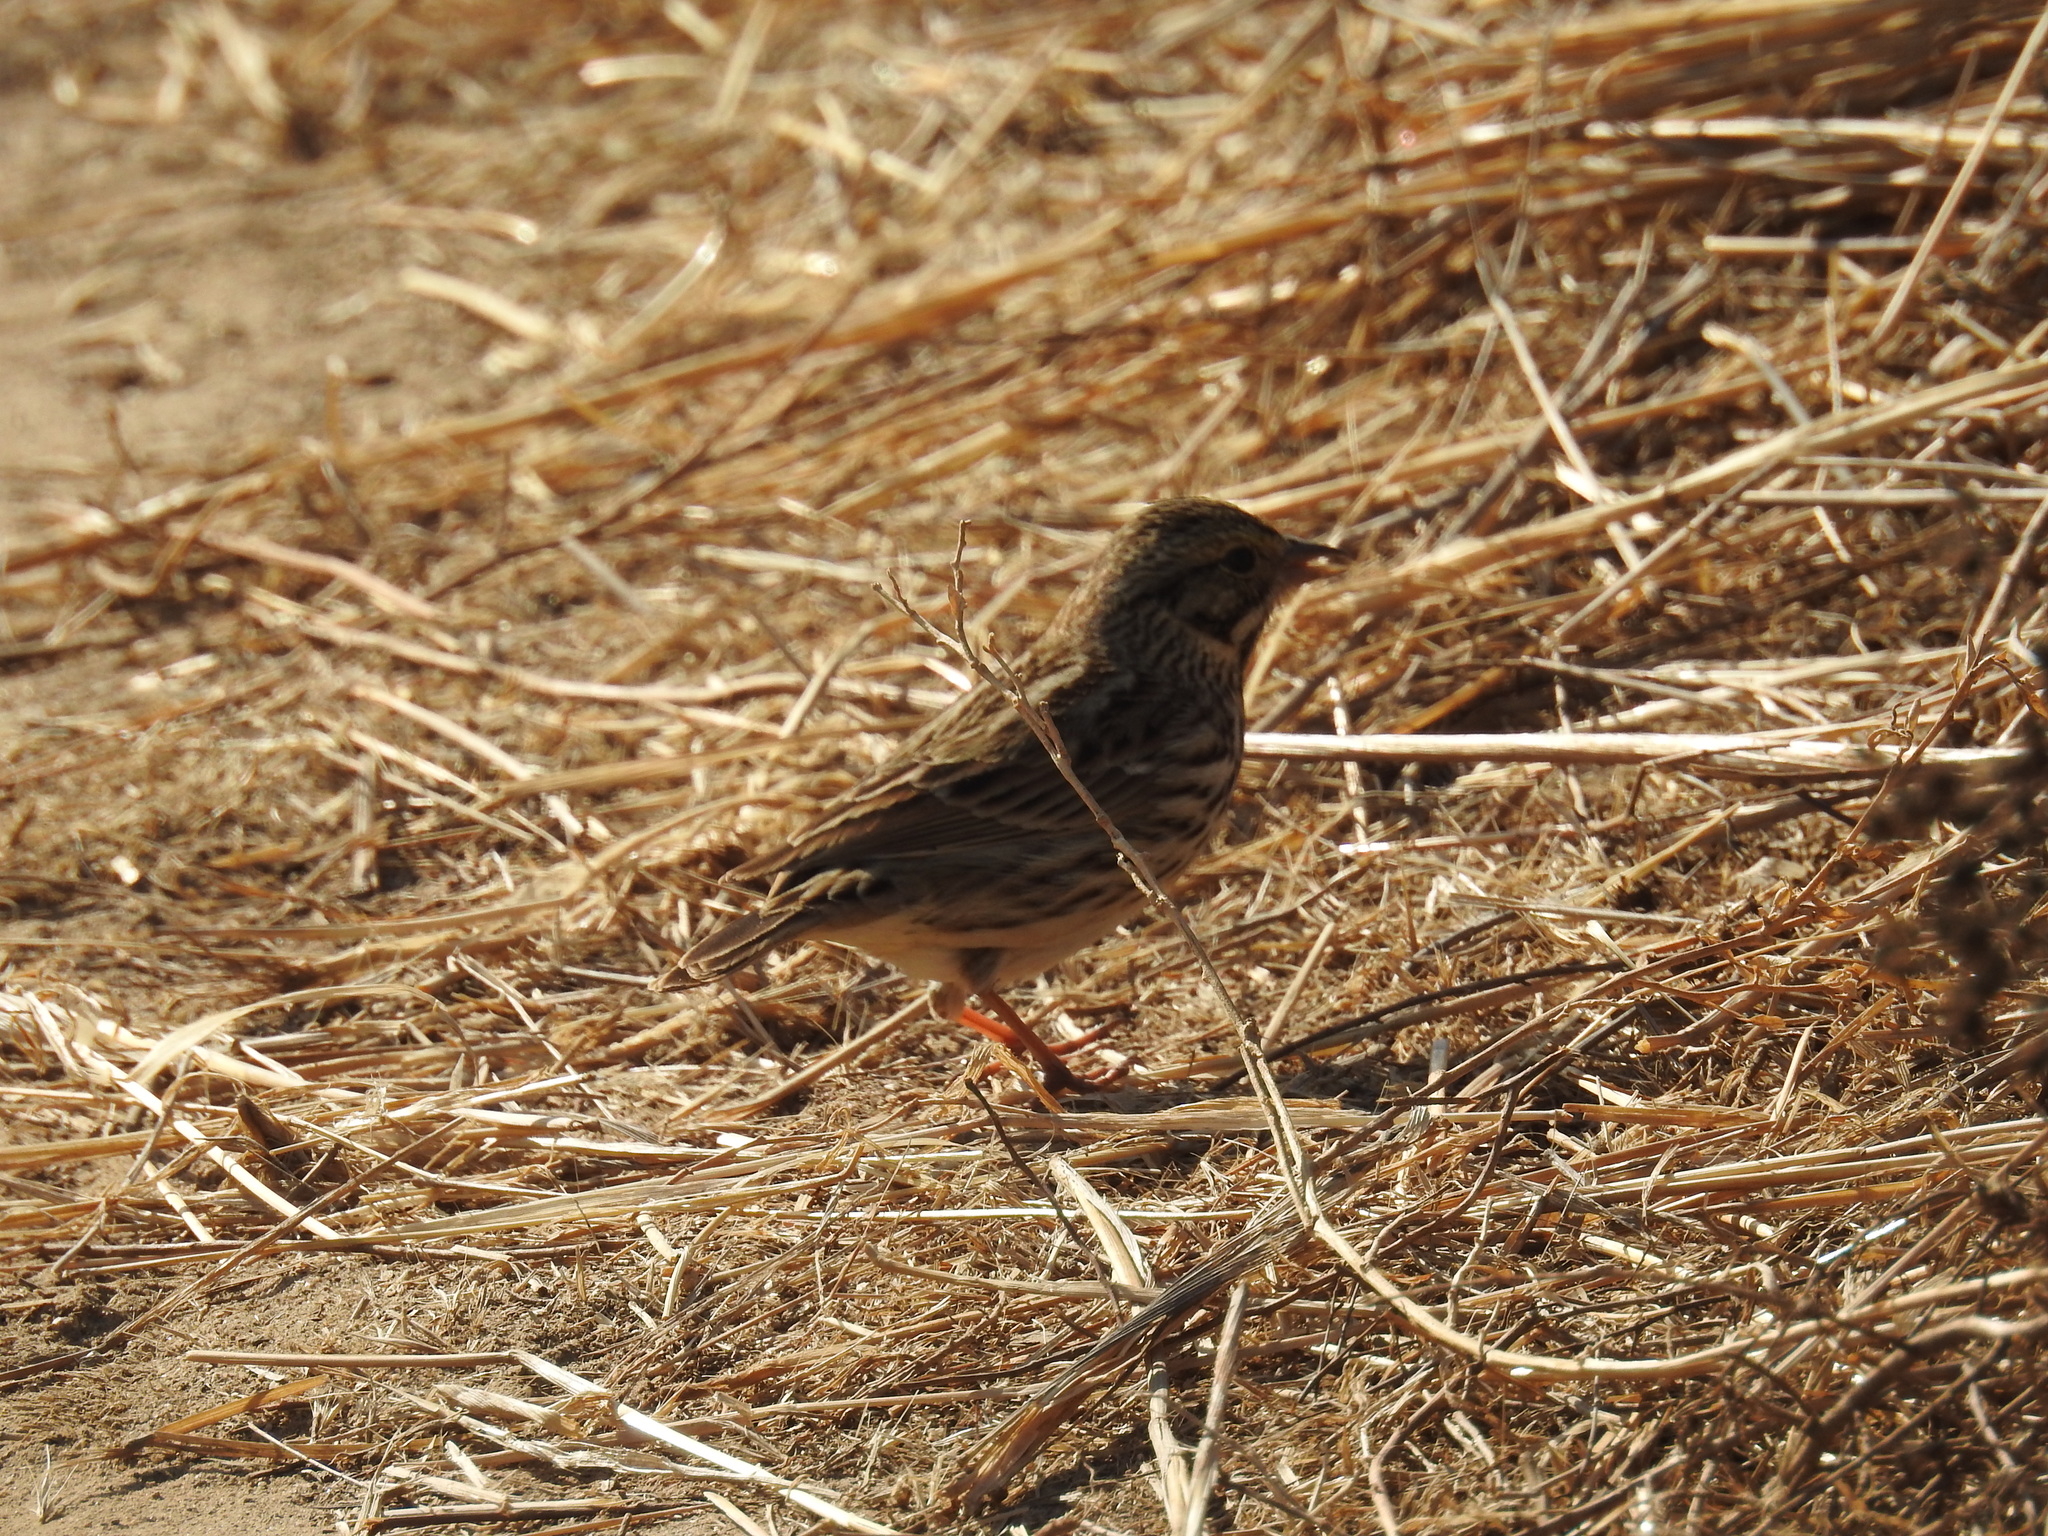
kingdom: Animalia
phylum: Chordata
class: Aves
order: Passeriformes
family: Passerellidae
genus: Passerculus
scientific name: Passerculus sandwichensis
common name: Savannah sparrow
